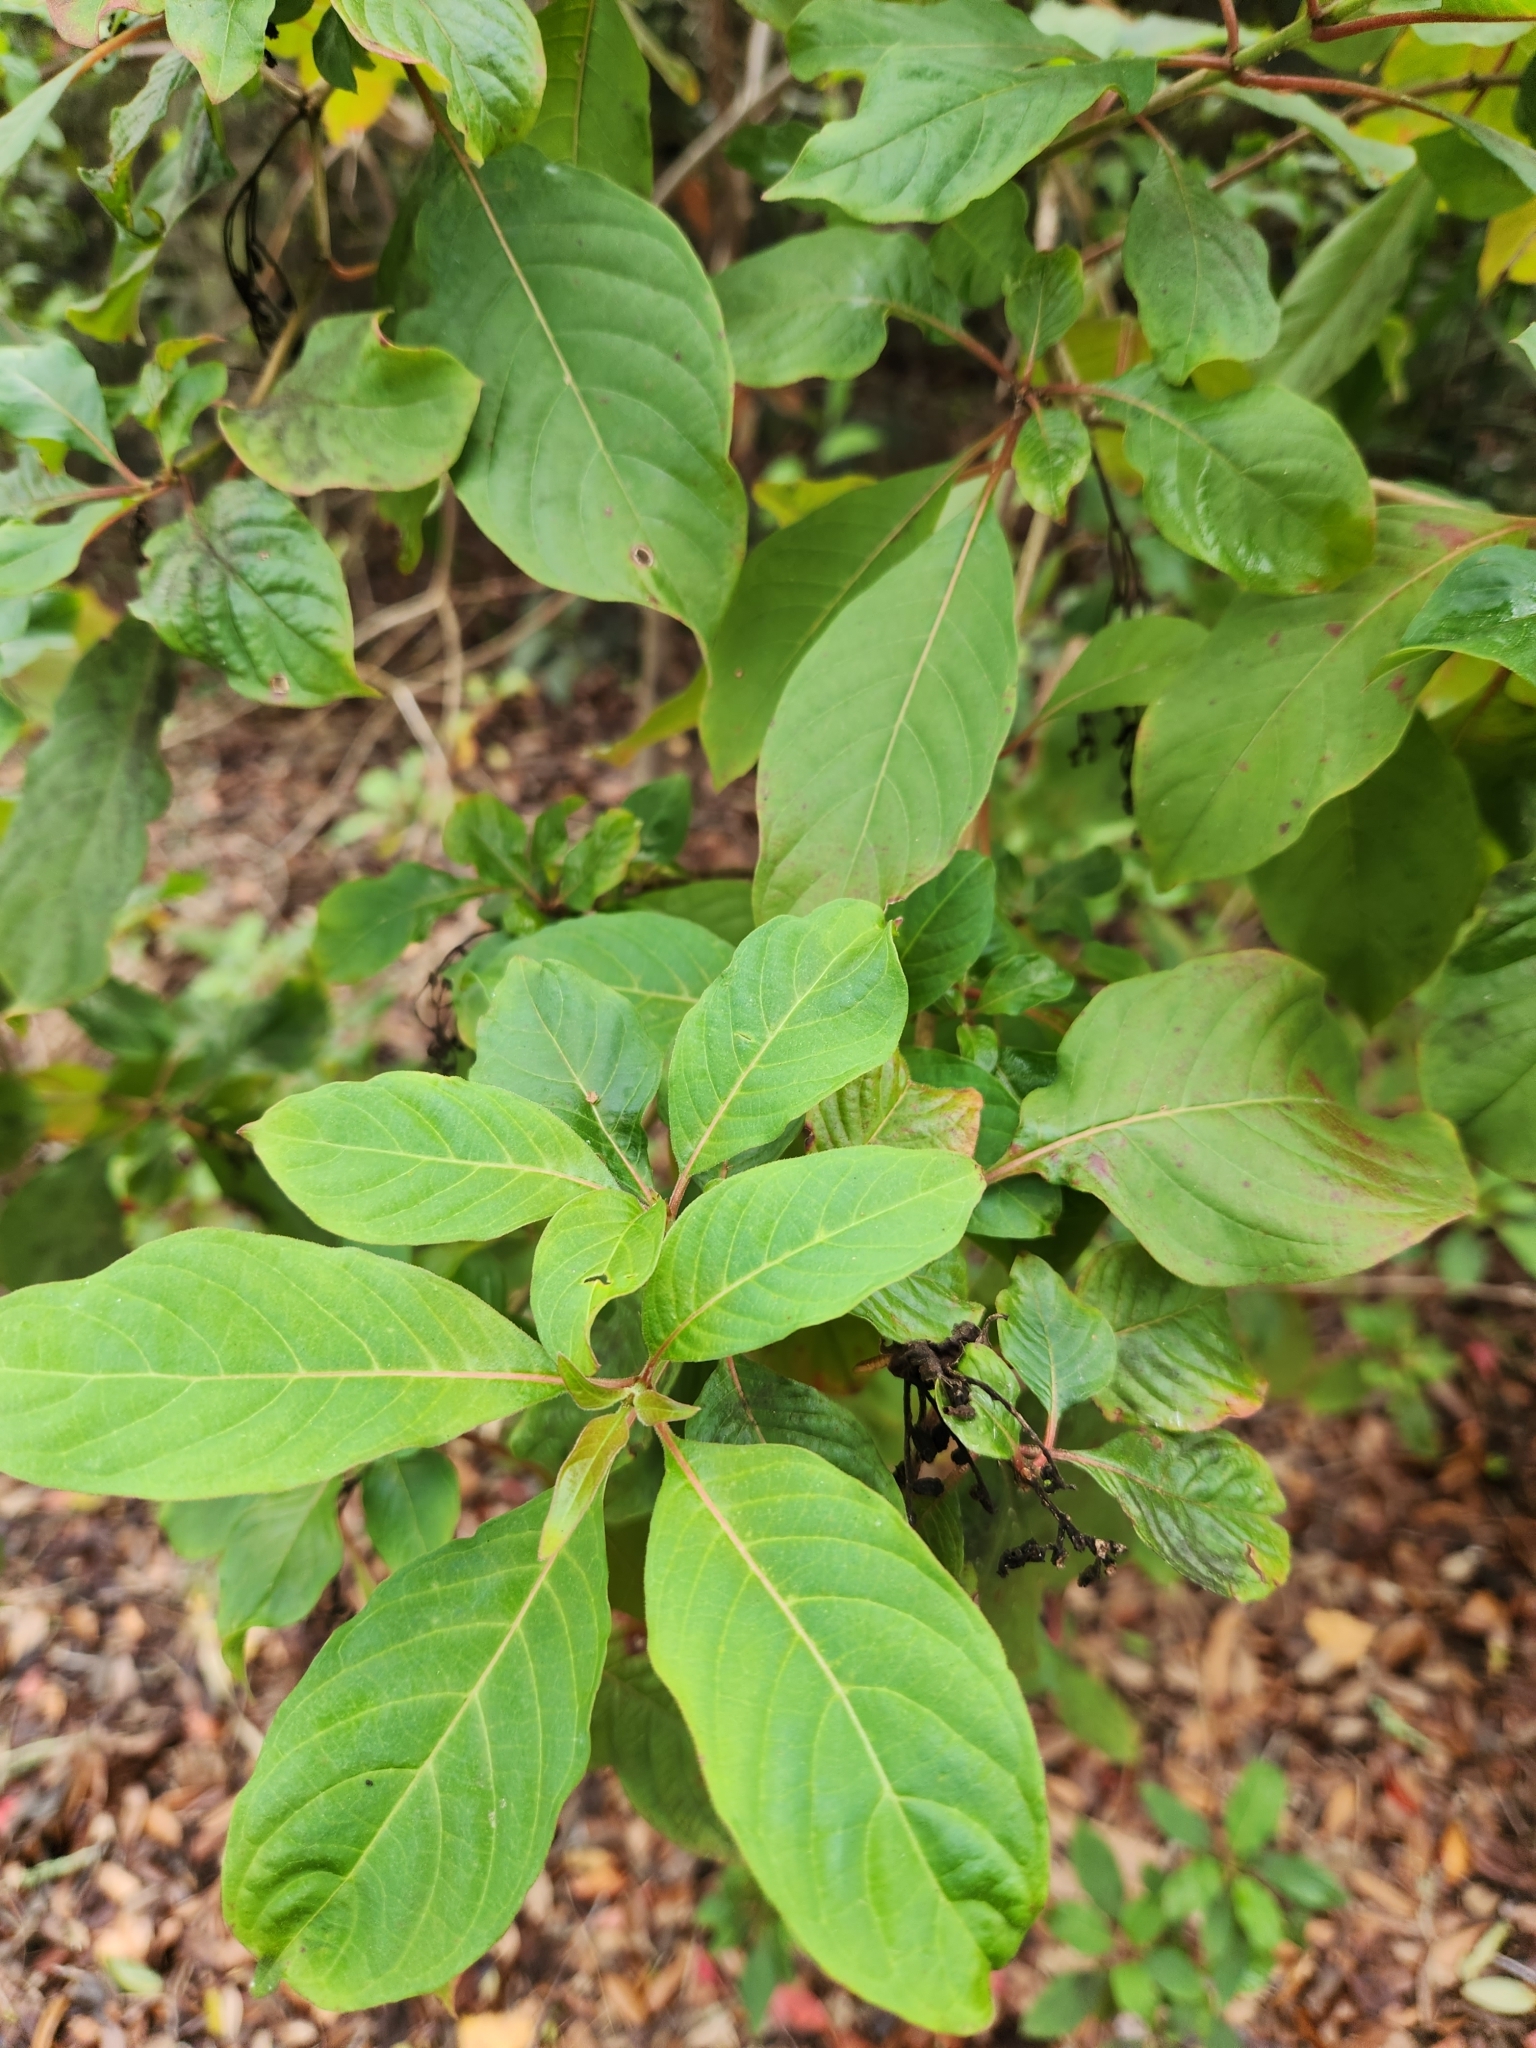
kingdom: Plantae
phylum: Tracheophyta
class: Magnoliopsida
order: Gentianales
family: Rubiaceae
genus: Hamelia
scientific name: Hamelia patens
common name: Redhead
